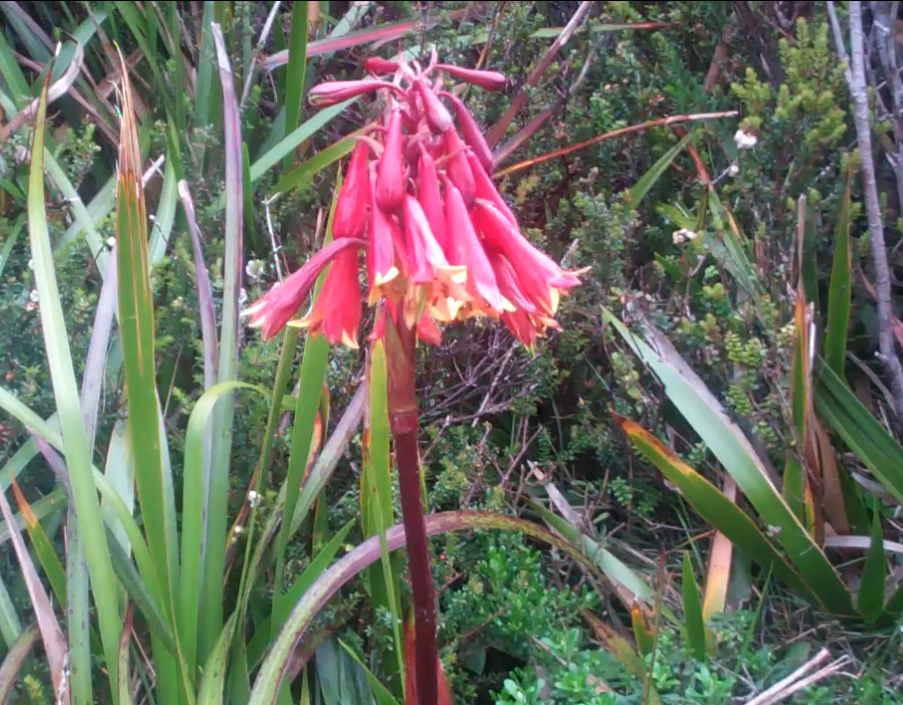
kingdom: Plantae
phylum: Tracheophyta
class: Liliopsida
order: Asparagales
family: Blandfordiaceae
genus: Blandfordia
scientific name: Blandfordia punicea
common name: Tasmanian christmas-bell
